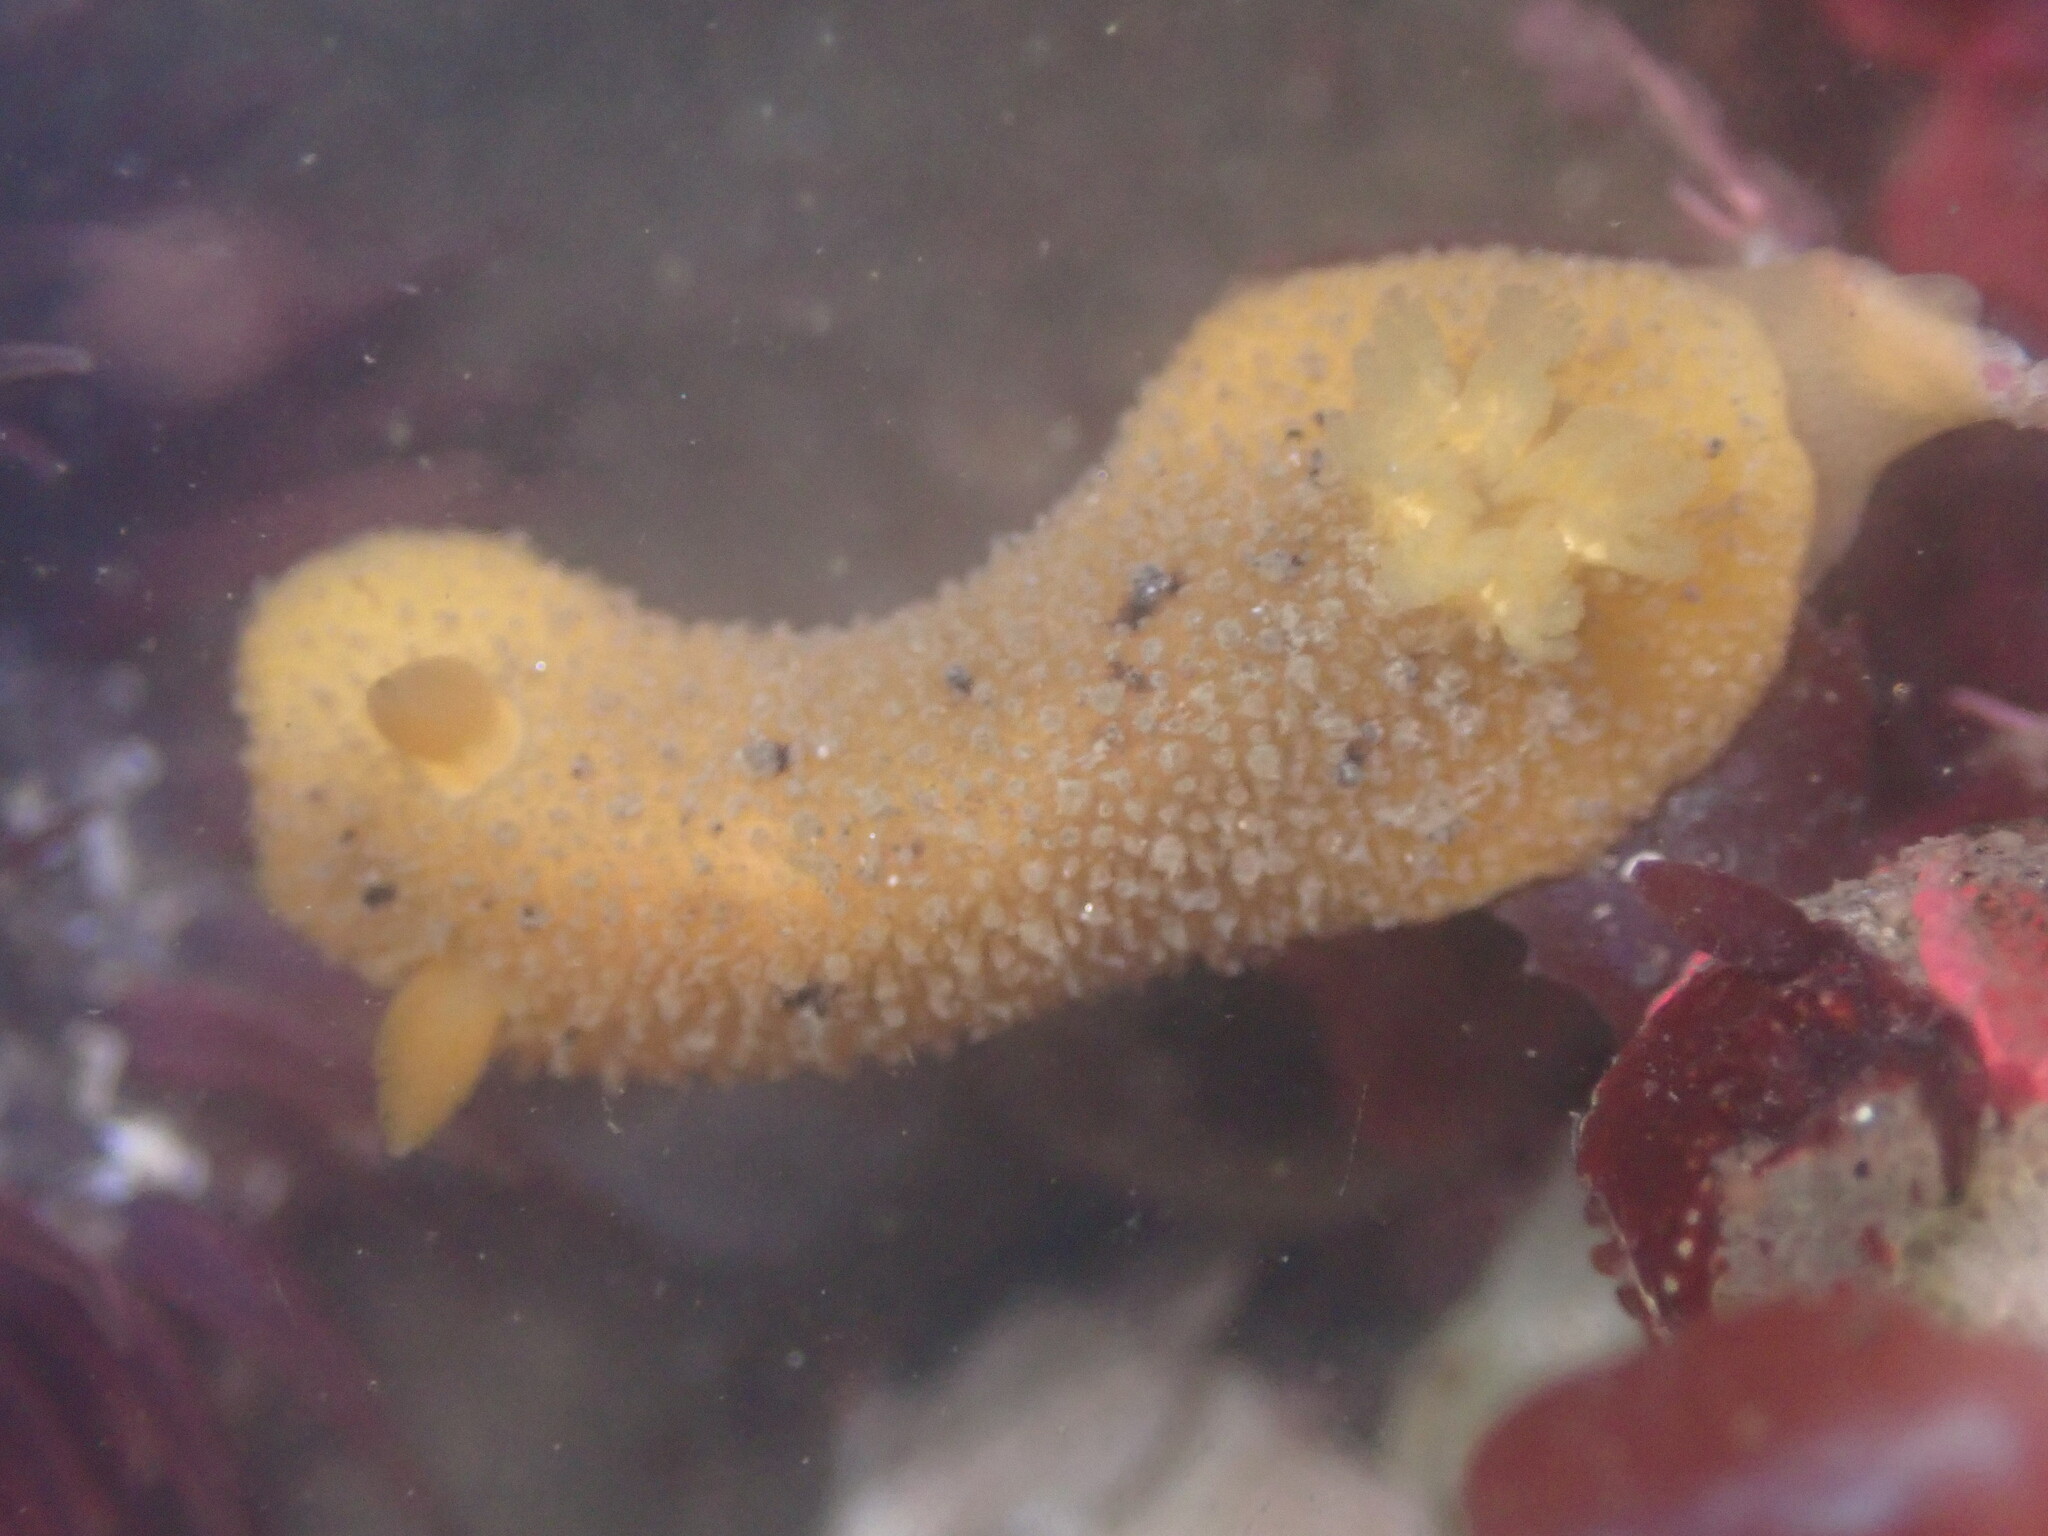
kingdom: Animalia
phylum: Mollusca
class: Gastropoda
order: Nudibranchia
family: Dorididae
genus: Doris
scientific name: Doris montereyensis
